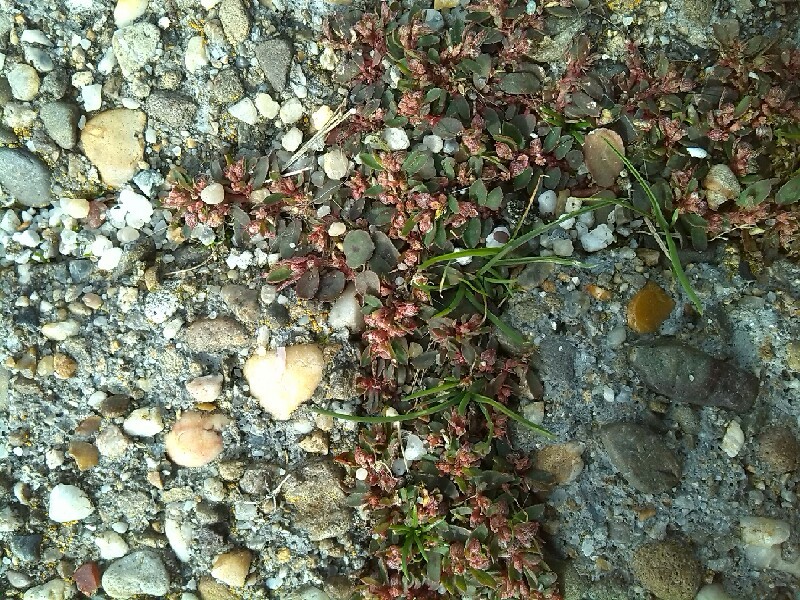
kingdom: Plantae
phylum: Tracheophyta
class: Magnoliopsida
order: Malpighiales
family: Euphorbiaceae
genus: Euphorbia
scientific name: Euphorbia maculata
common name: Spotted spurge
